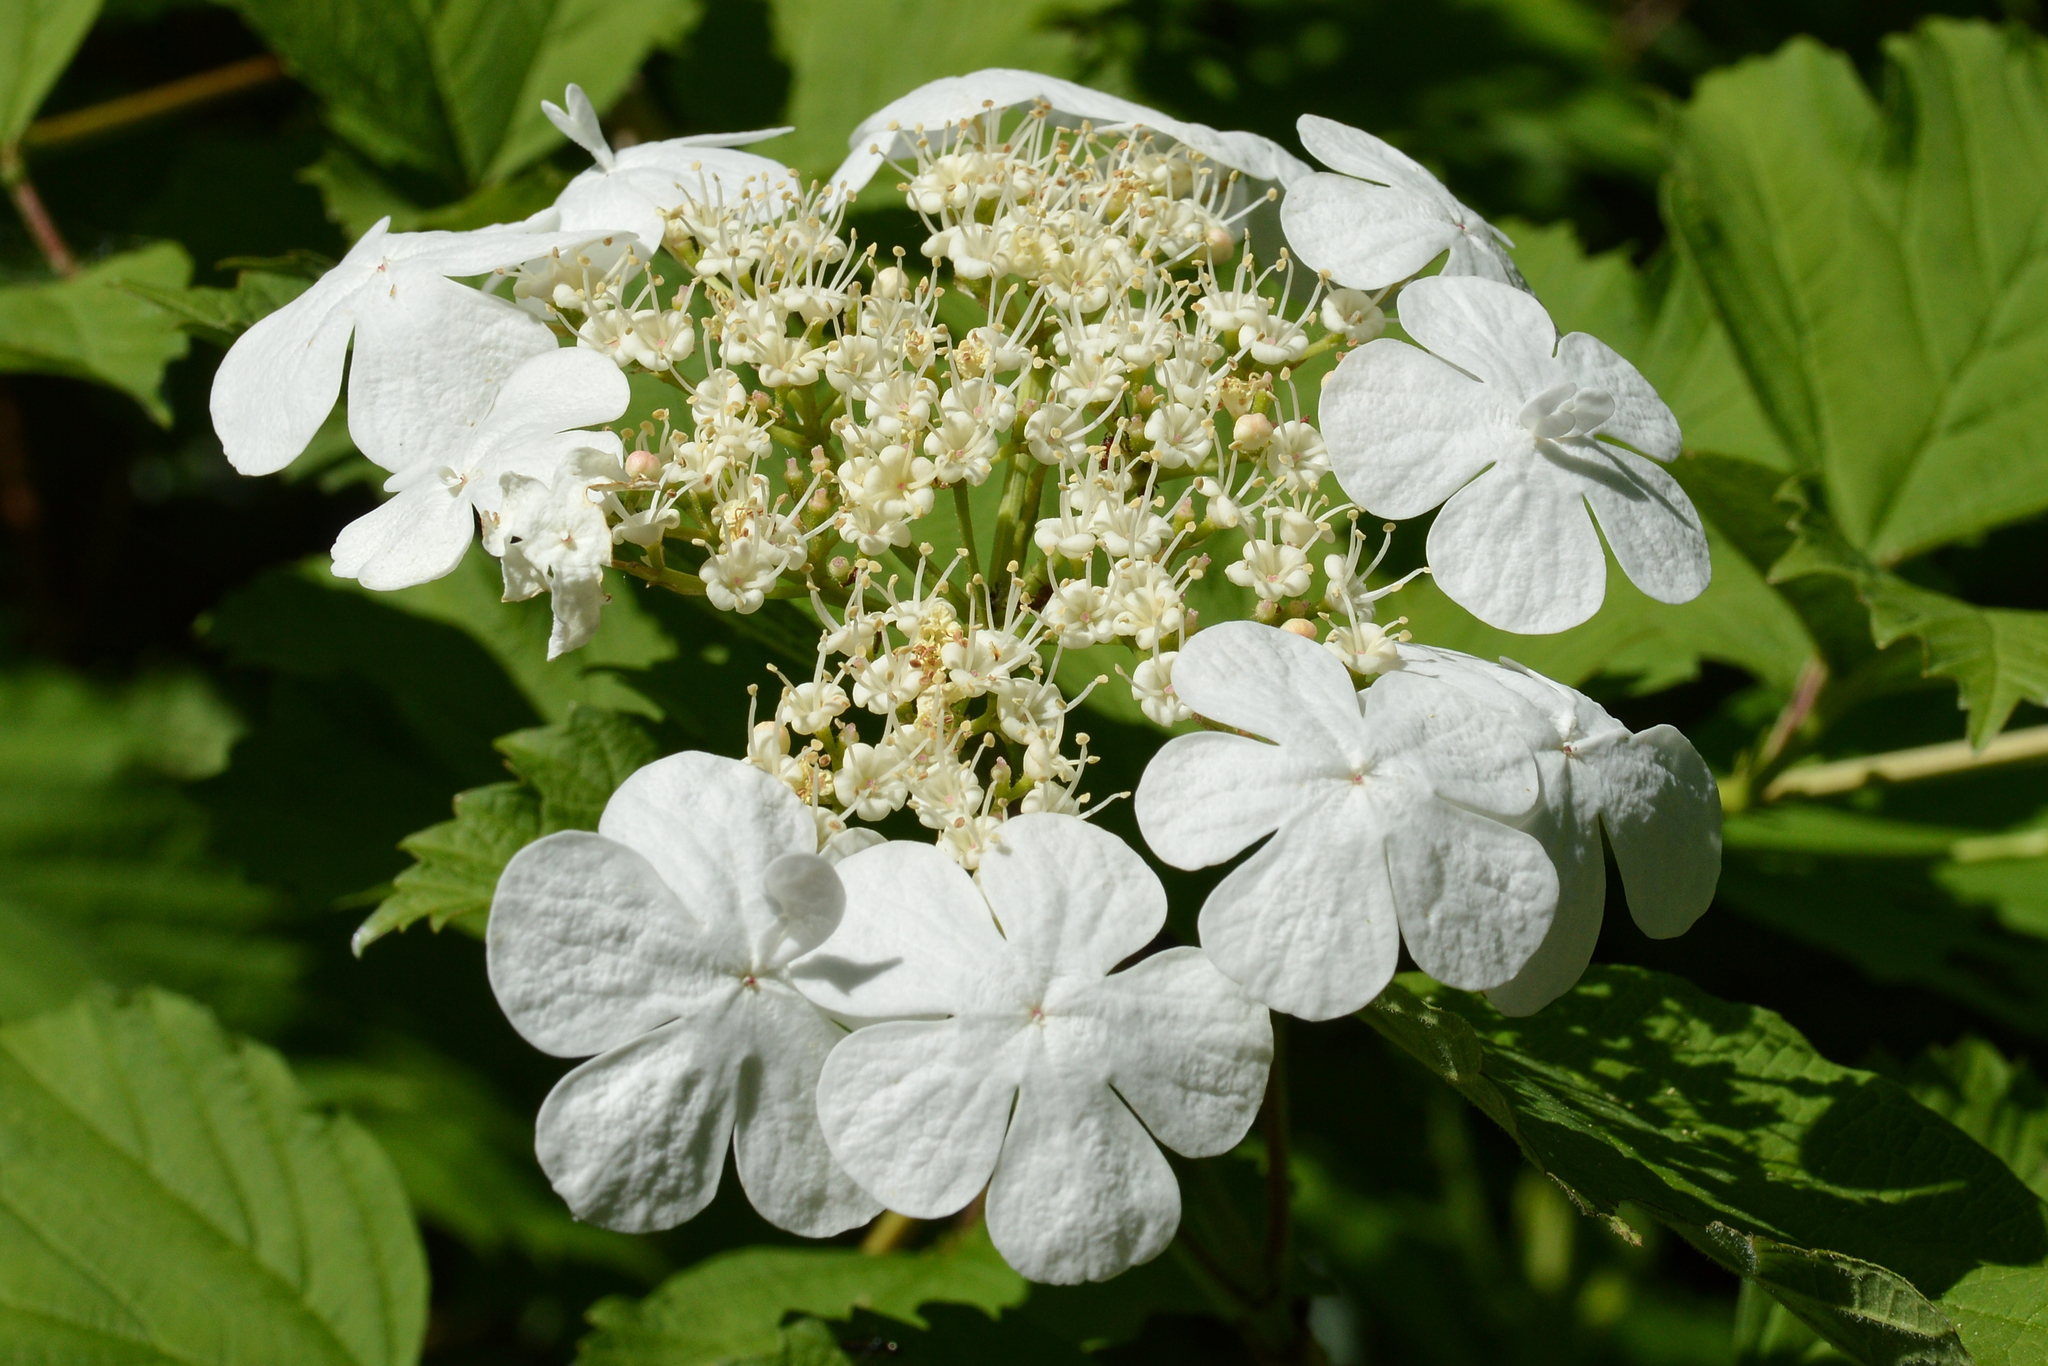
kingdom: Plantae
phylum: Tracheophyta
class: Magnoliopsida
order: Dipsacales
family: Viburnaceae
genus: Viburnum
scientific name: Viburnum opulus
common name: Guelder-rose
